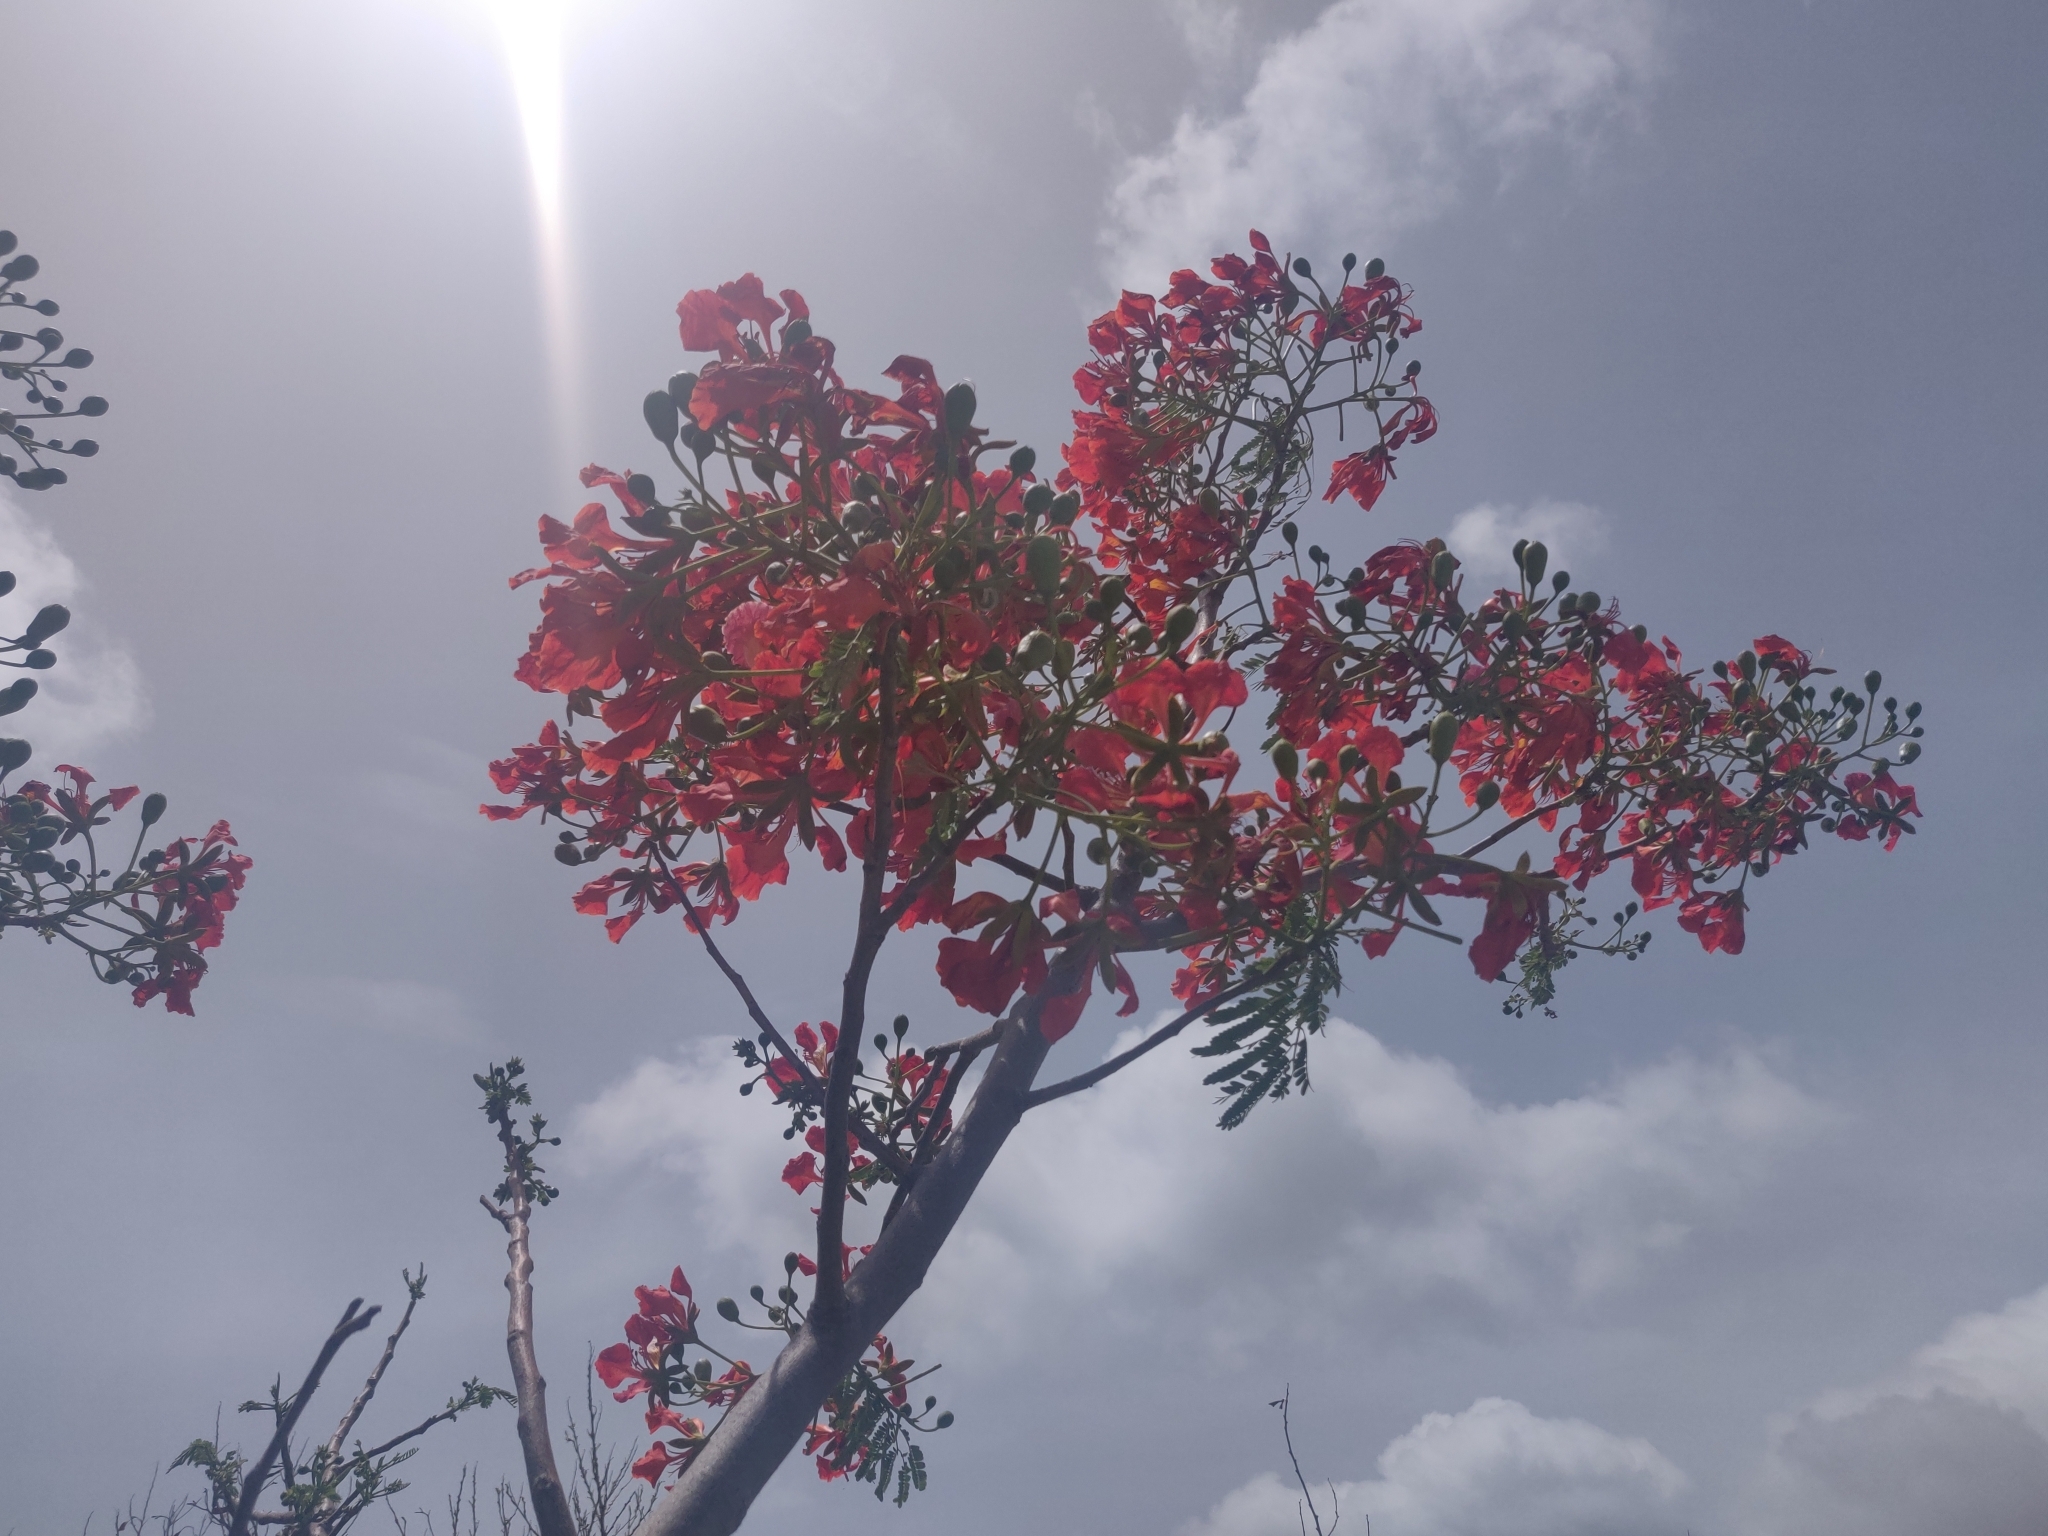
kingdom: Plantae
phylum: Tracheophyta
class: Magnoliopsida
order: Fabales
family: Fabaceae
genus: Delonix
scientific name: Delonix regia
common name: Royal poinciana
